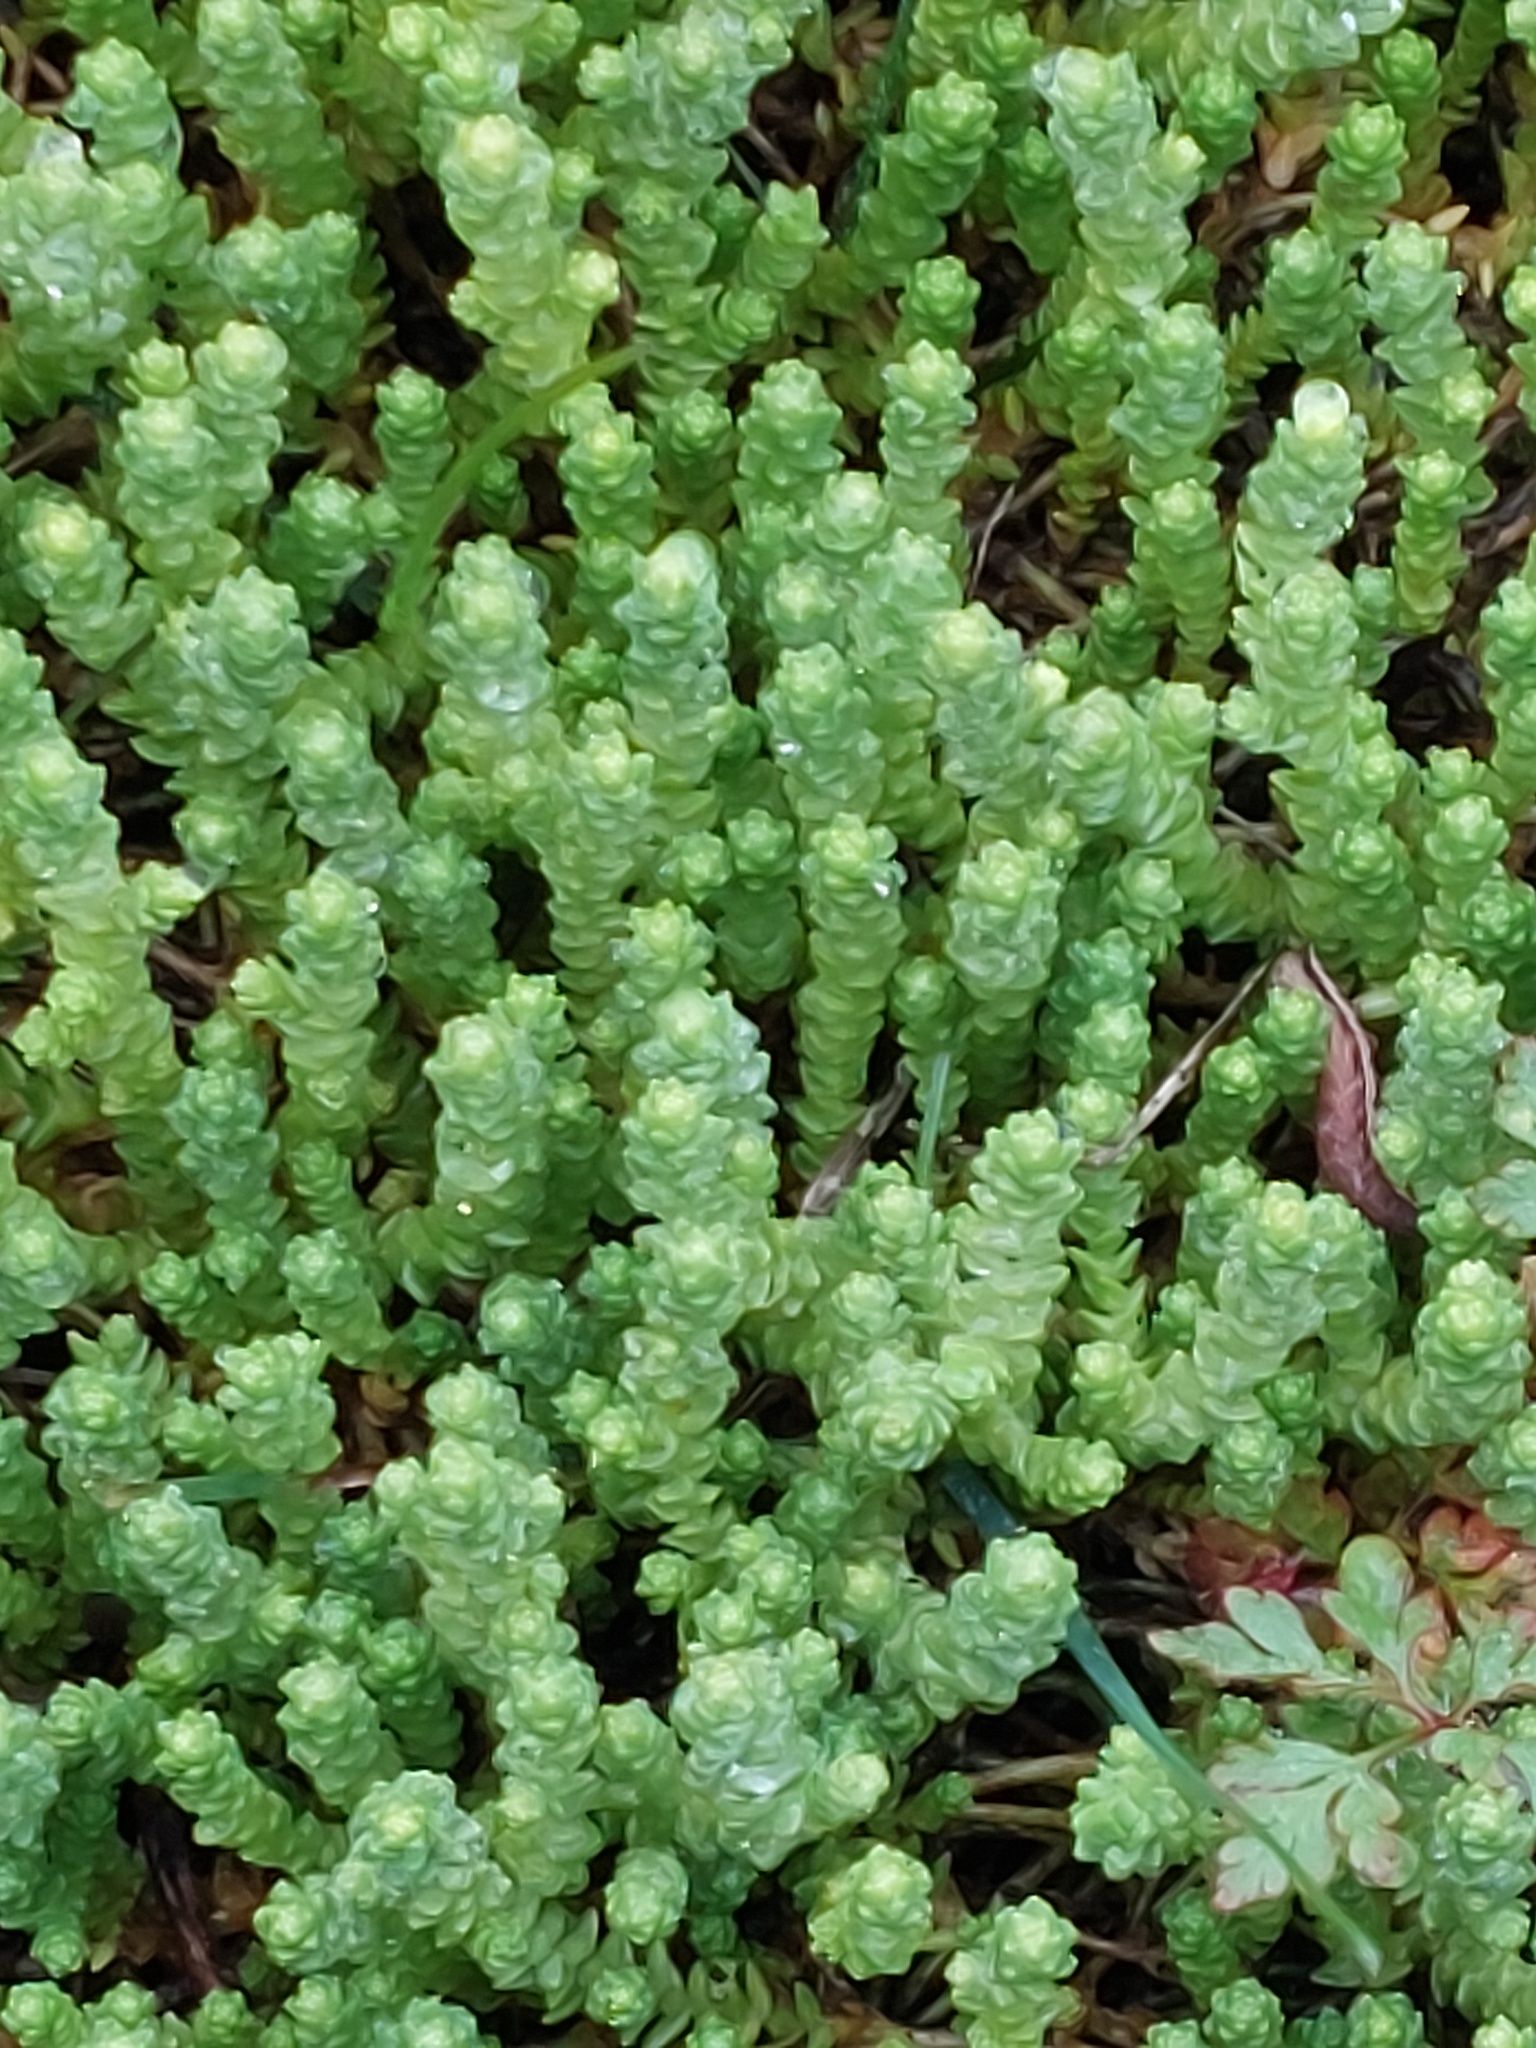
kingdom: Plantae
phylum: Tracheophyta
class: Magnoliopsida
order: Saxifragales
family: Crassulaceae
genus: Sedum
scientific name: Sedum acre
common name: Biting stonecrop
